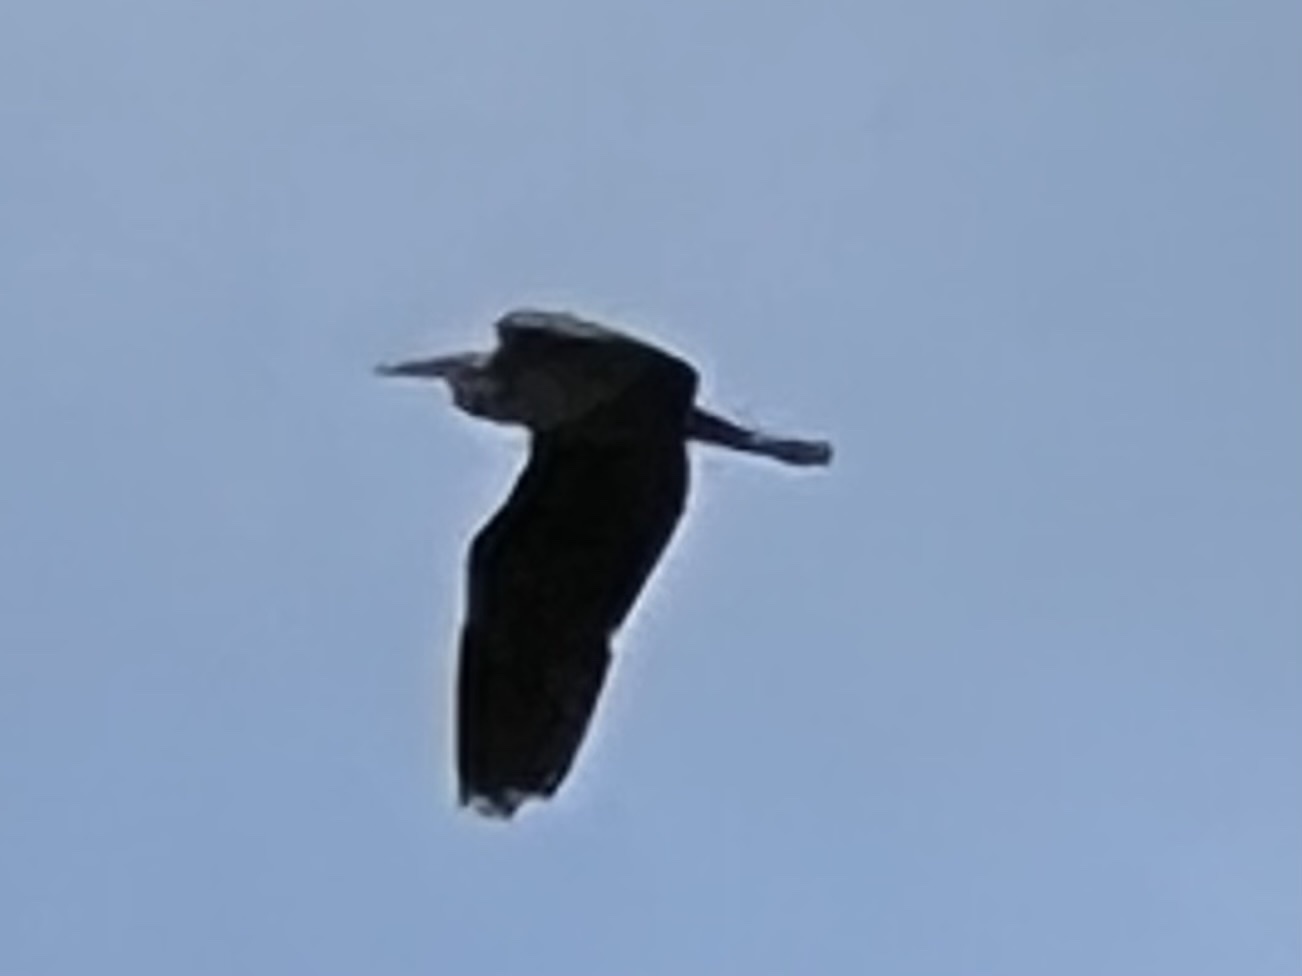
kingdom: Animalia
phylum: Chordata
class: Aves
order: Pelecaniformes
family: Ardeidae
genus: Ardea
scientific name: Ardea cinerea
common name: Grey heron
